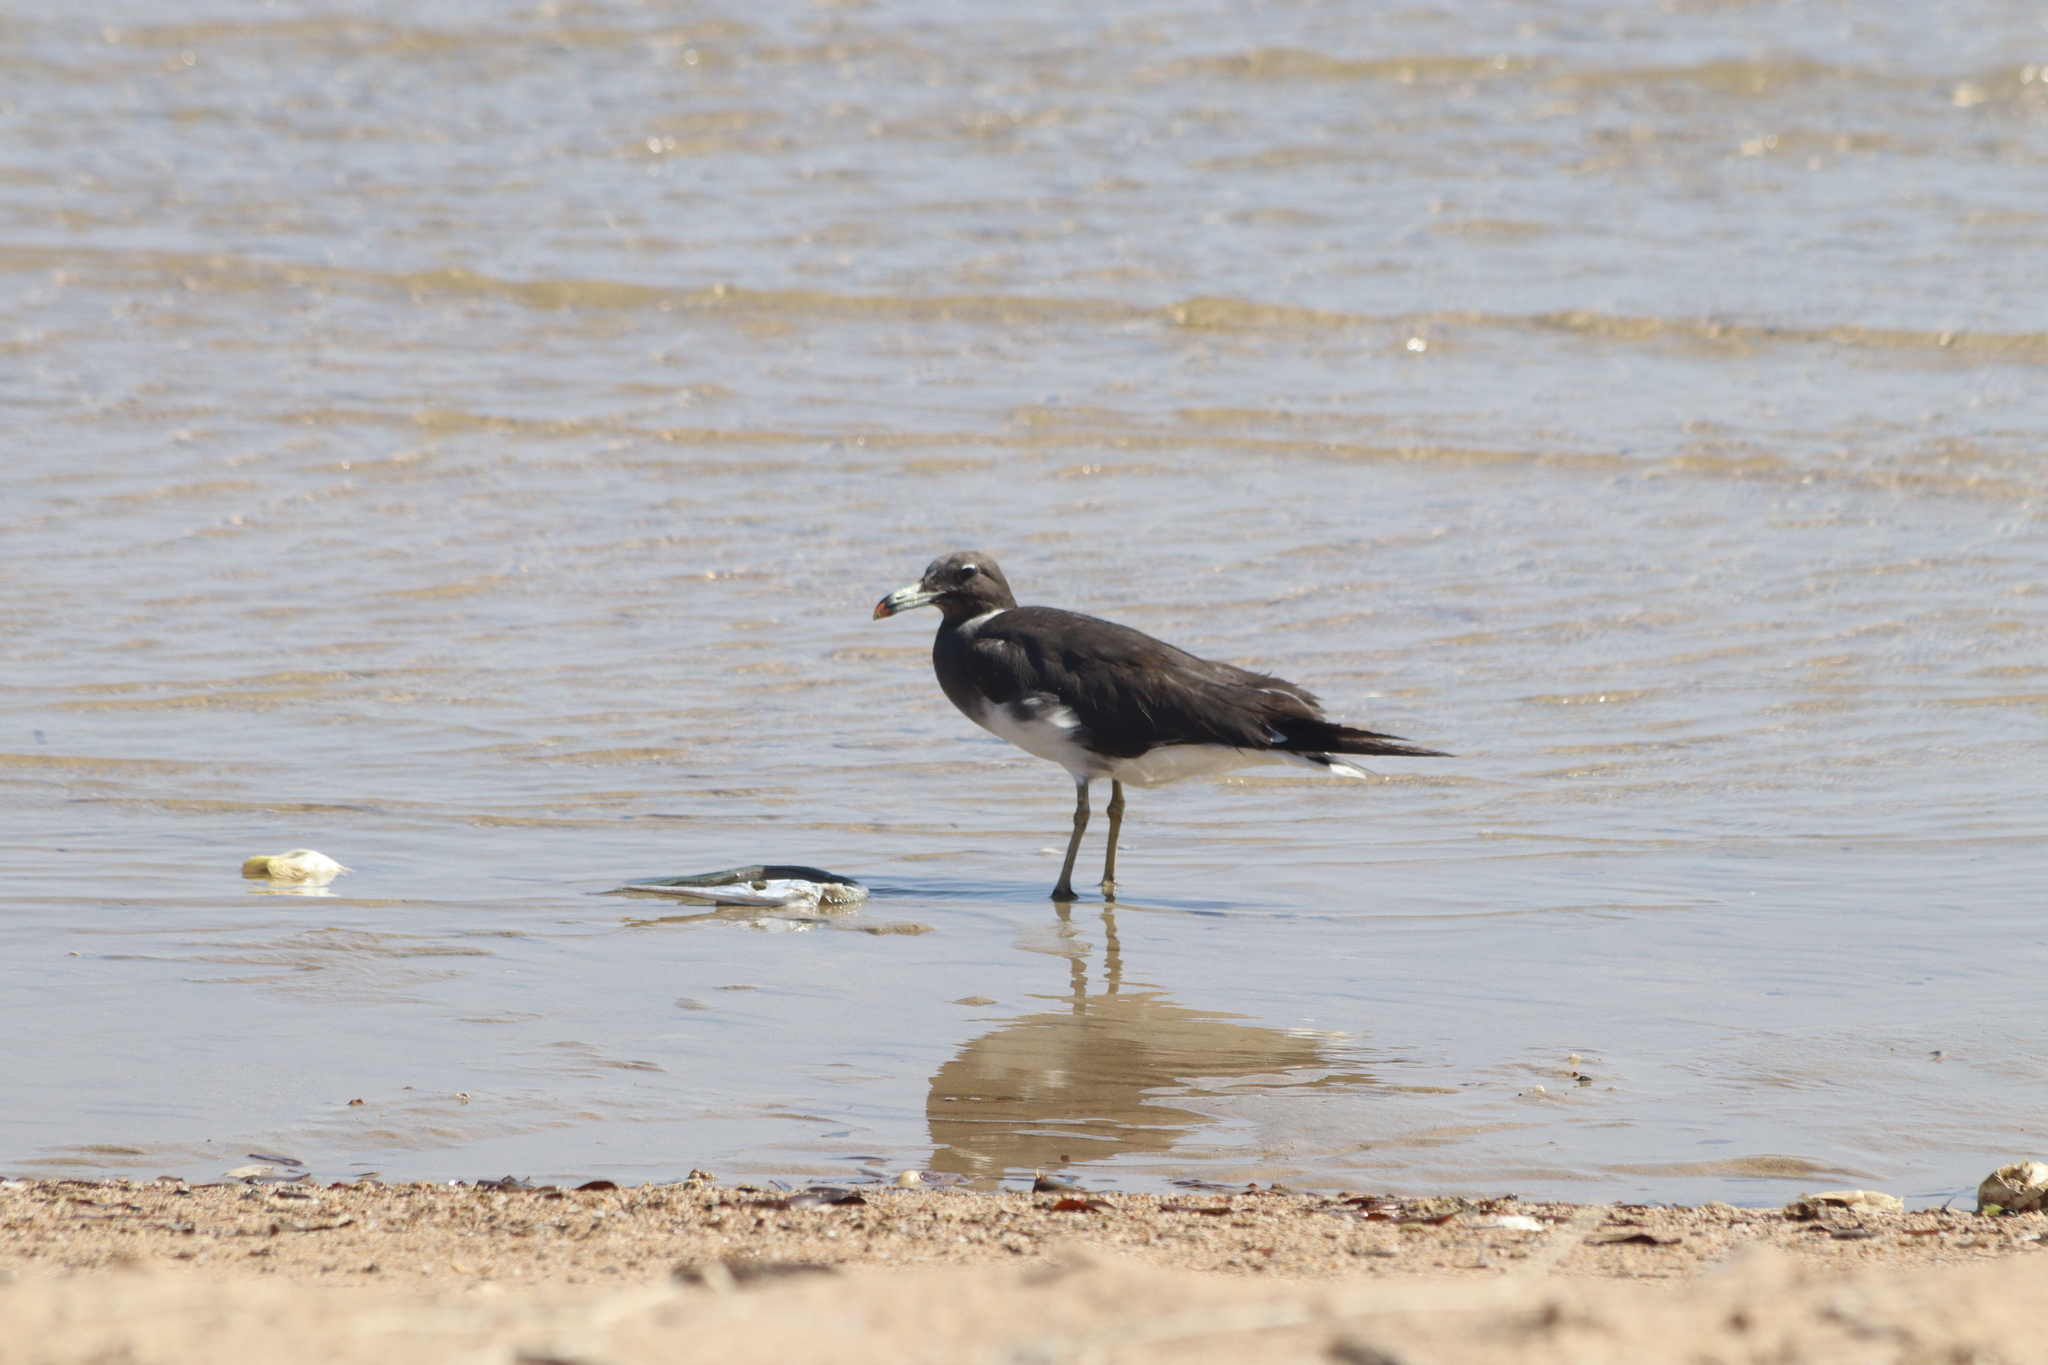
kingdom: Animalia
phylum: Chordata
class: Aves
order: Charadriiformes
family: Laridae
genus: Ichthyaetus
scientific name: Ichthyaetus hemprichii
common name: Sooty gull
